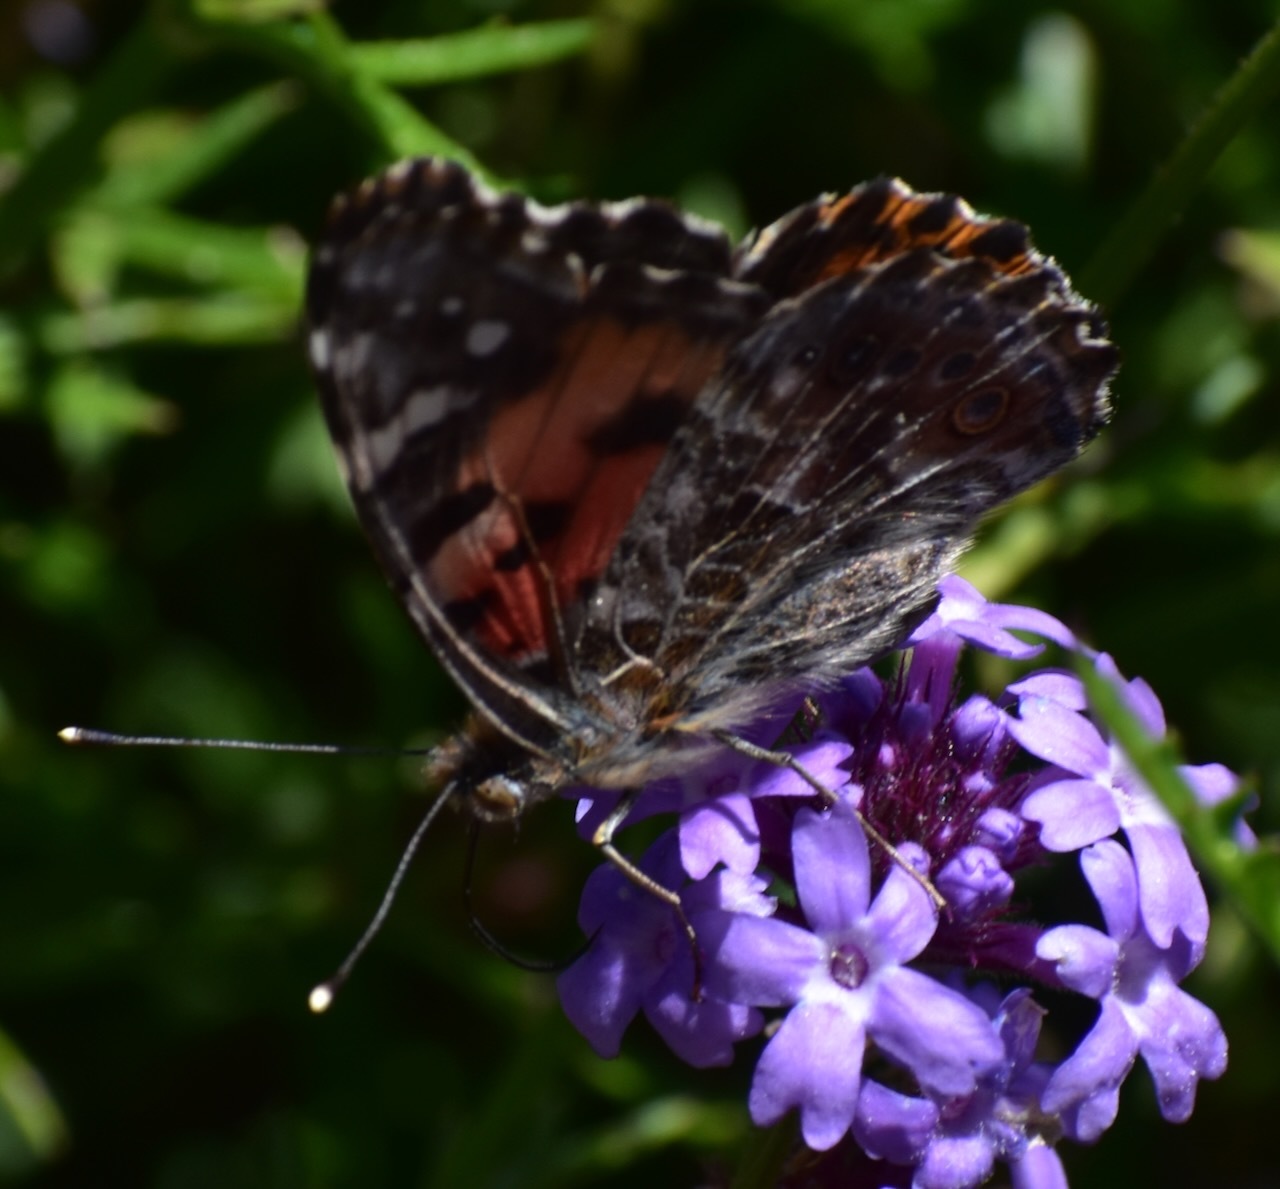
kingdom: Animalia
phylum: Arthropoda
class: Insecta
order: Lepidoptera
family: Nymphalidae
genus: Vanessa
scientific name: Vanessa cardui
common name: Painted lady
